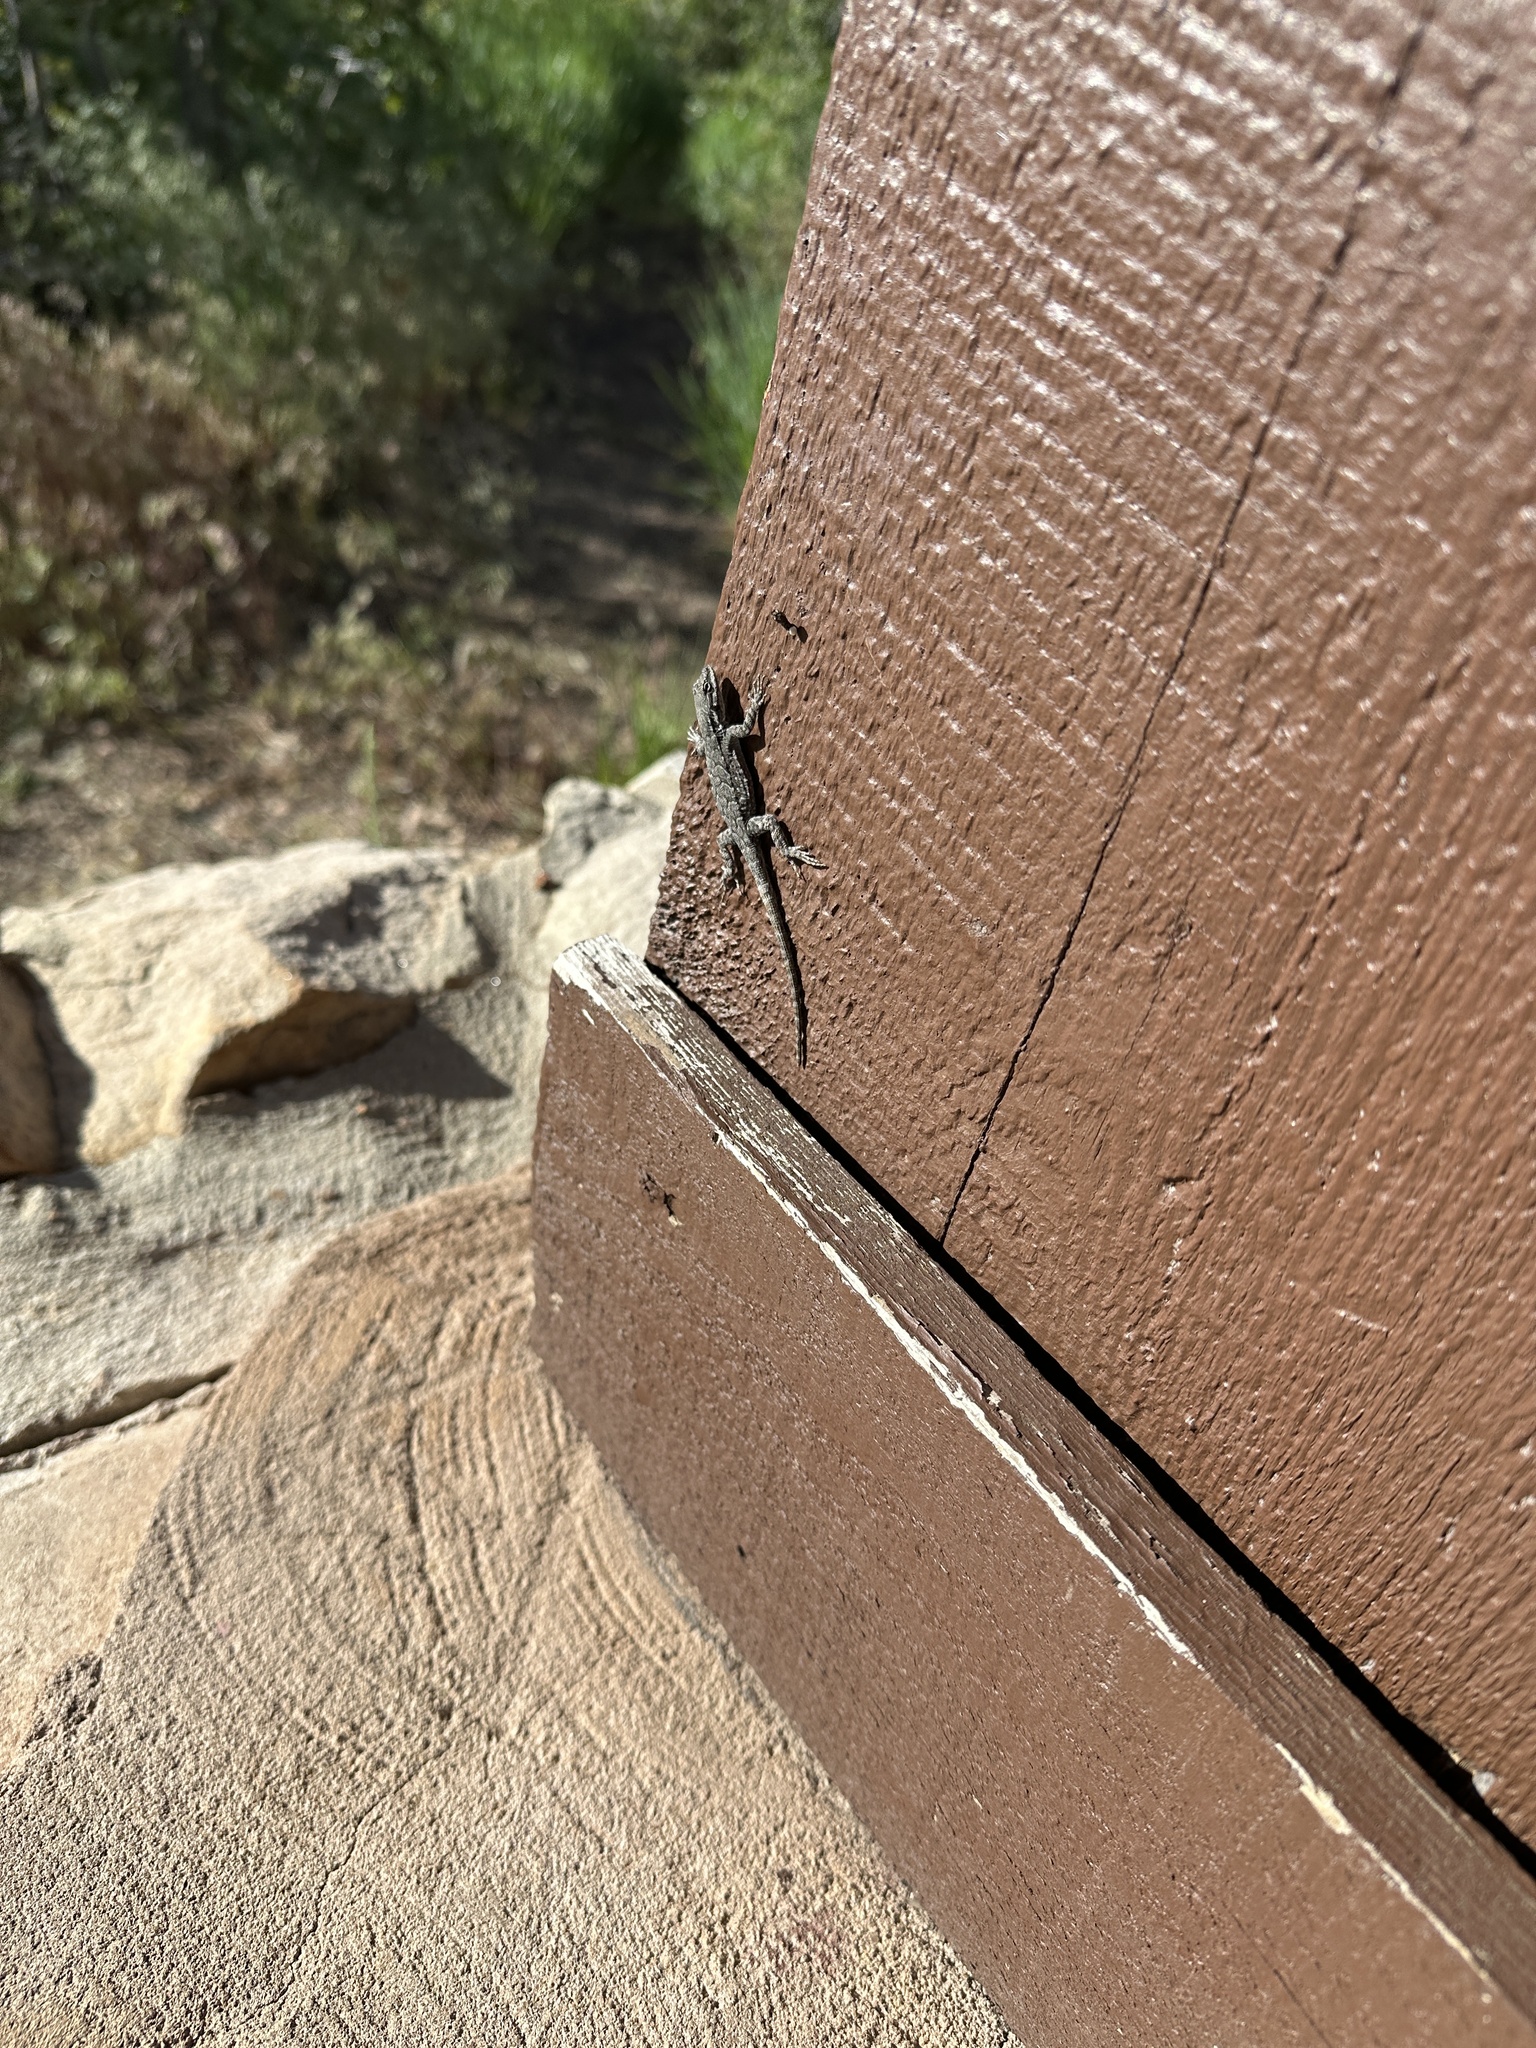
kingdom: Animalia
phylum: Chordata
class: Squamata
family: Phrynosomatidae
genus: Urosaurus
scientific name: Urosaurus ornatus
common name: Ornate tree lizard
